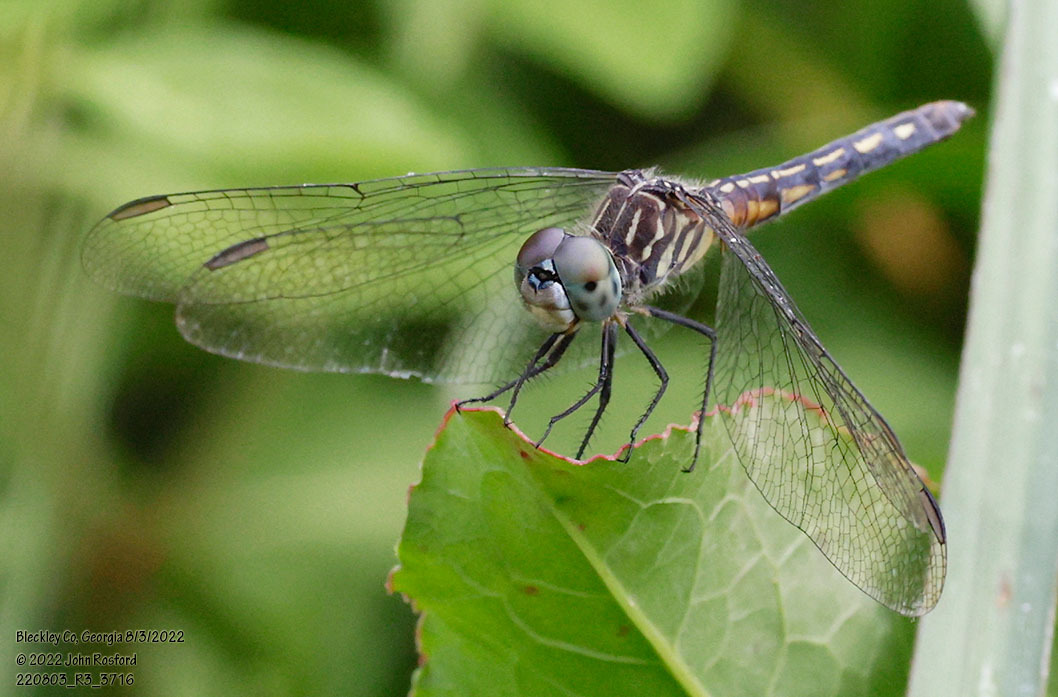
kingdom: Animalia
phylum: Arthropoda
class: Insecta
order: Odonata
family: Libellulidae
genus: Pachydiplax
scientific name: Pachydiplax longipennis
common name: Blue dasher
